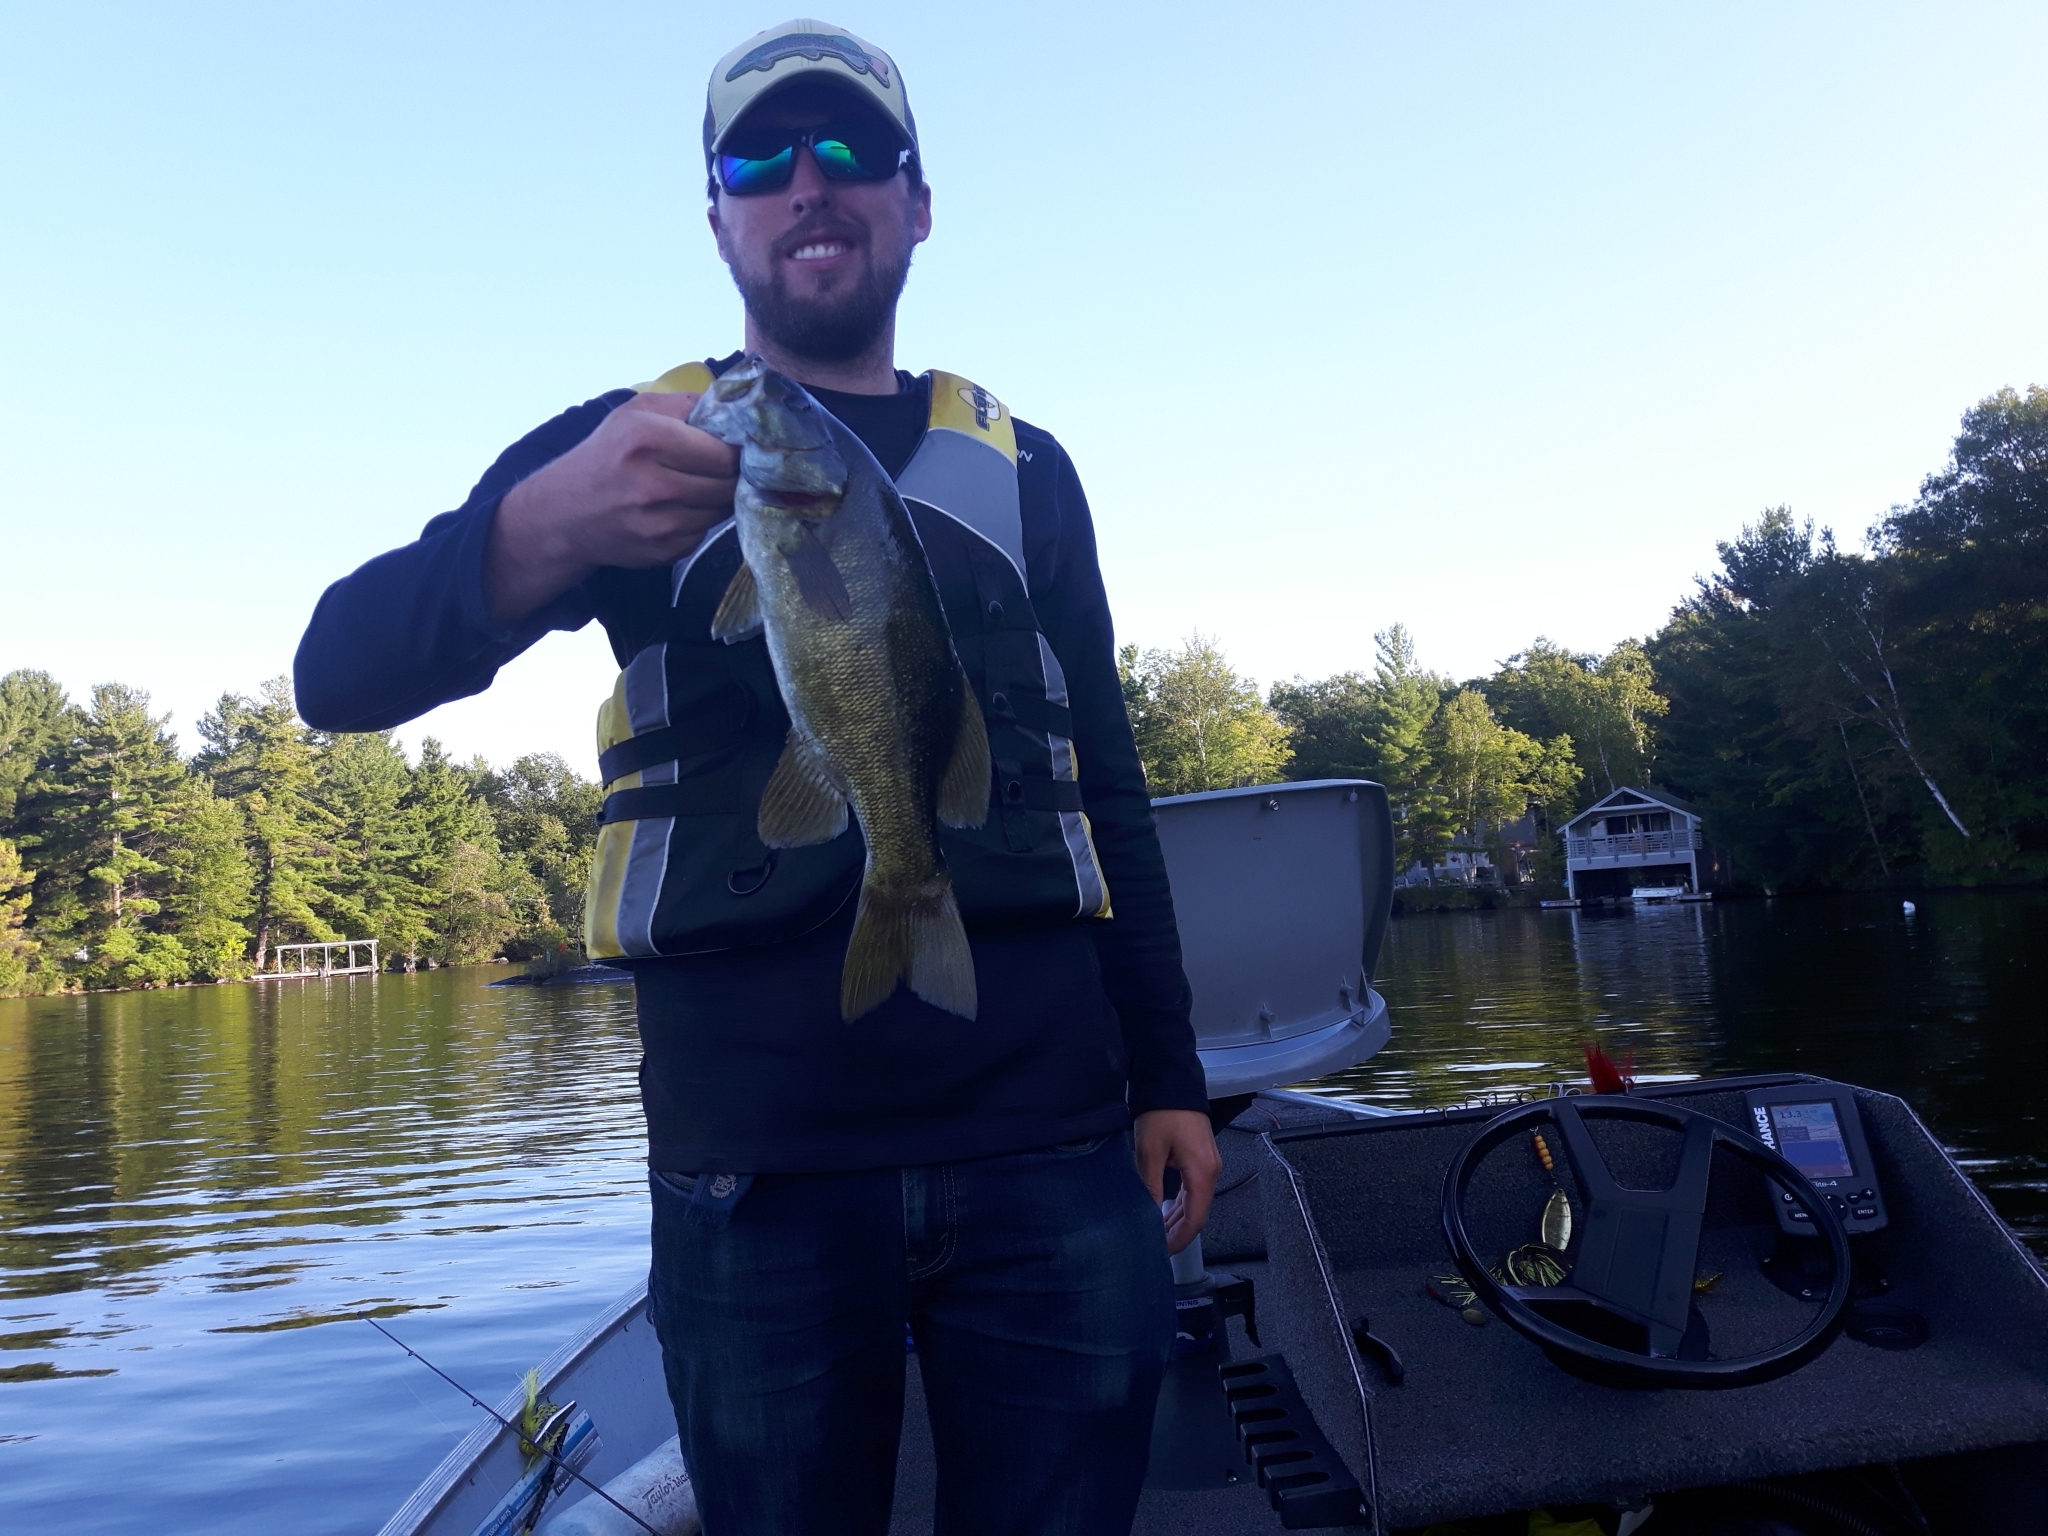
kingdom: Animalia
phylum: Chordata
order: Perciformes
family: Centrarchidae
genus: Micropterus
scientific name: Micropterus dolomieu
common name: Smallmouth bass
